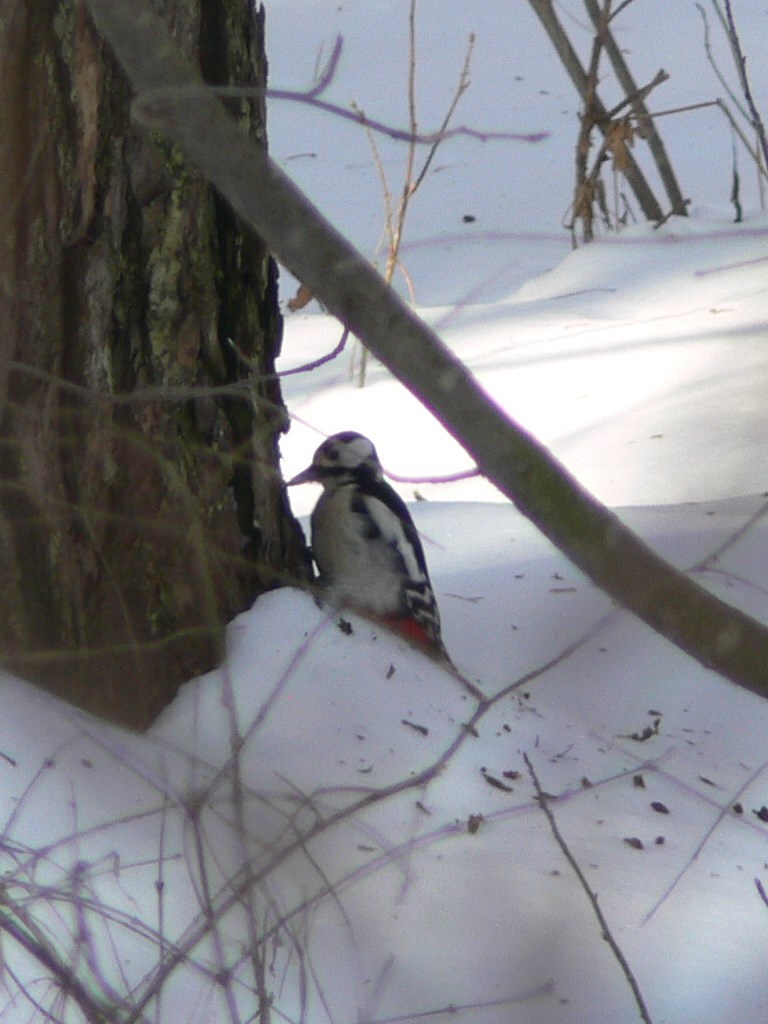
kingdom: Animalia
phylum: Chordata
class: Aves
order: Piciformes
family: Picidae
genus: Dendrocopos
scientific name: Dendrocopos major
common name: Great spotted woodpecker
